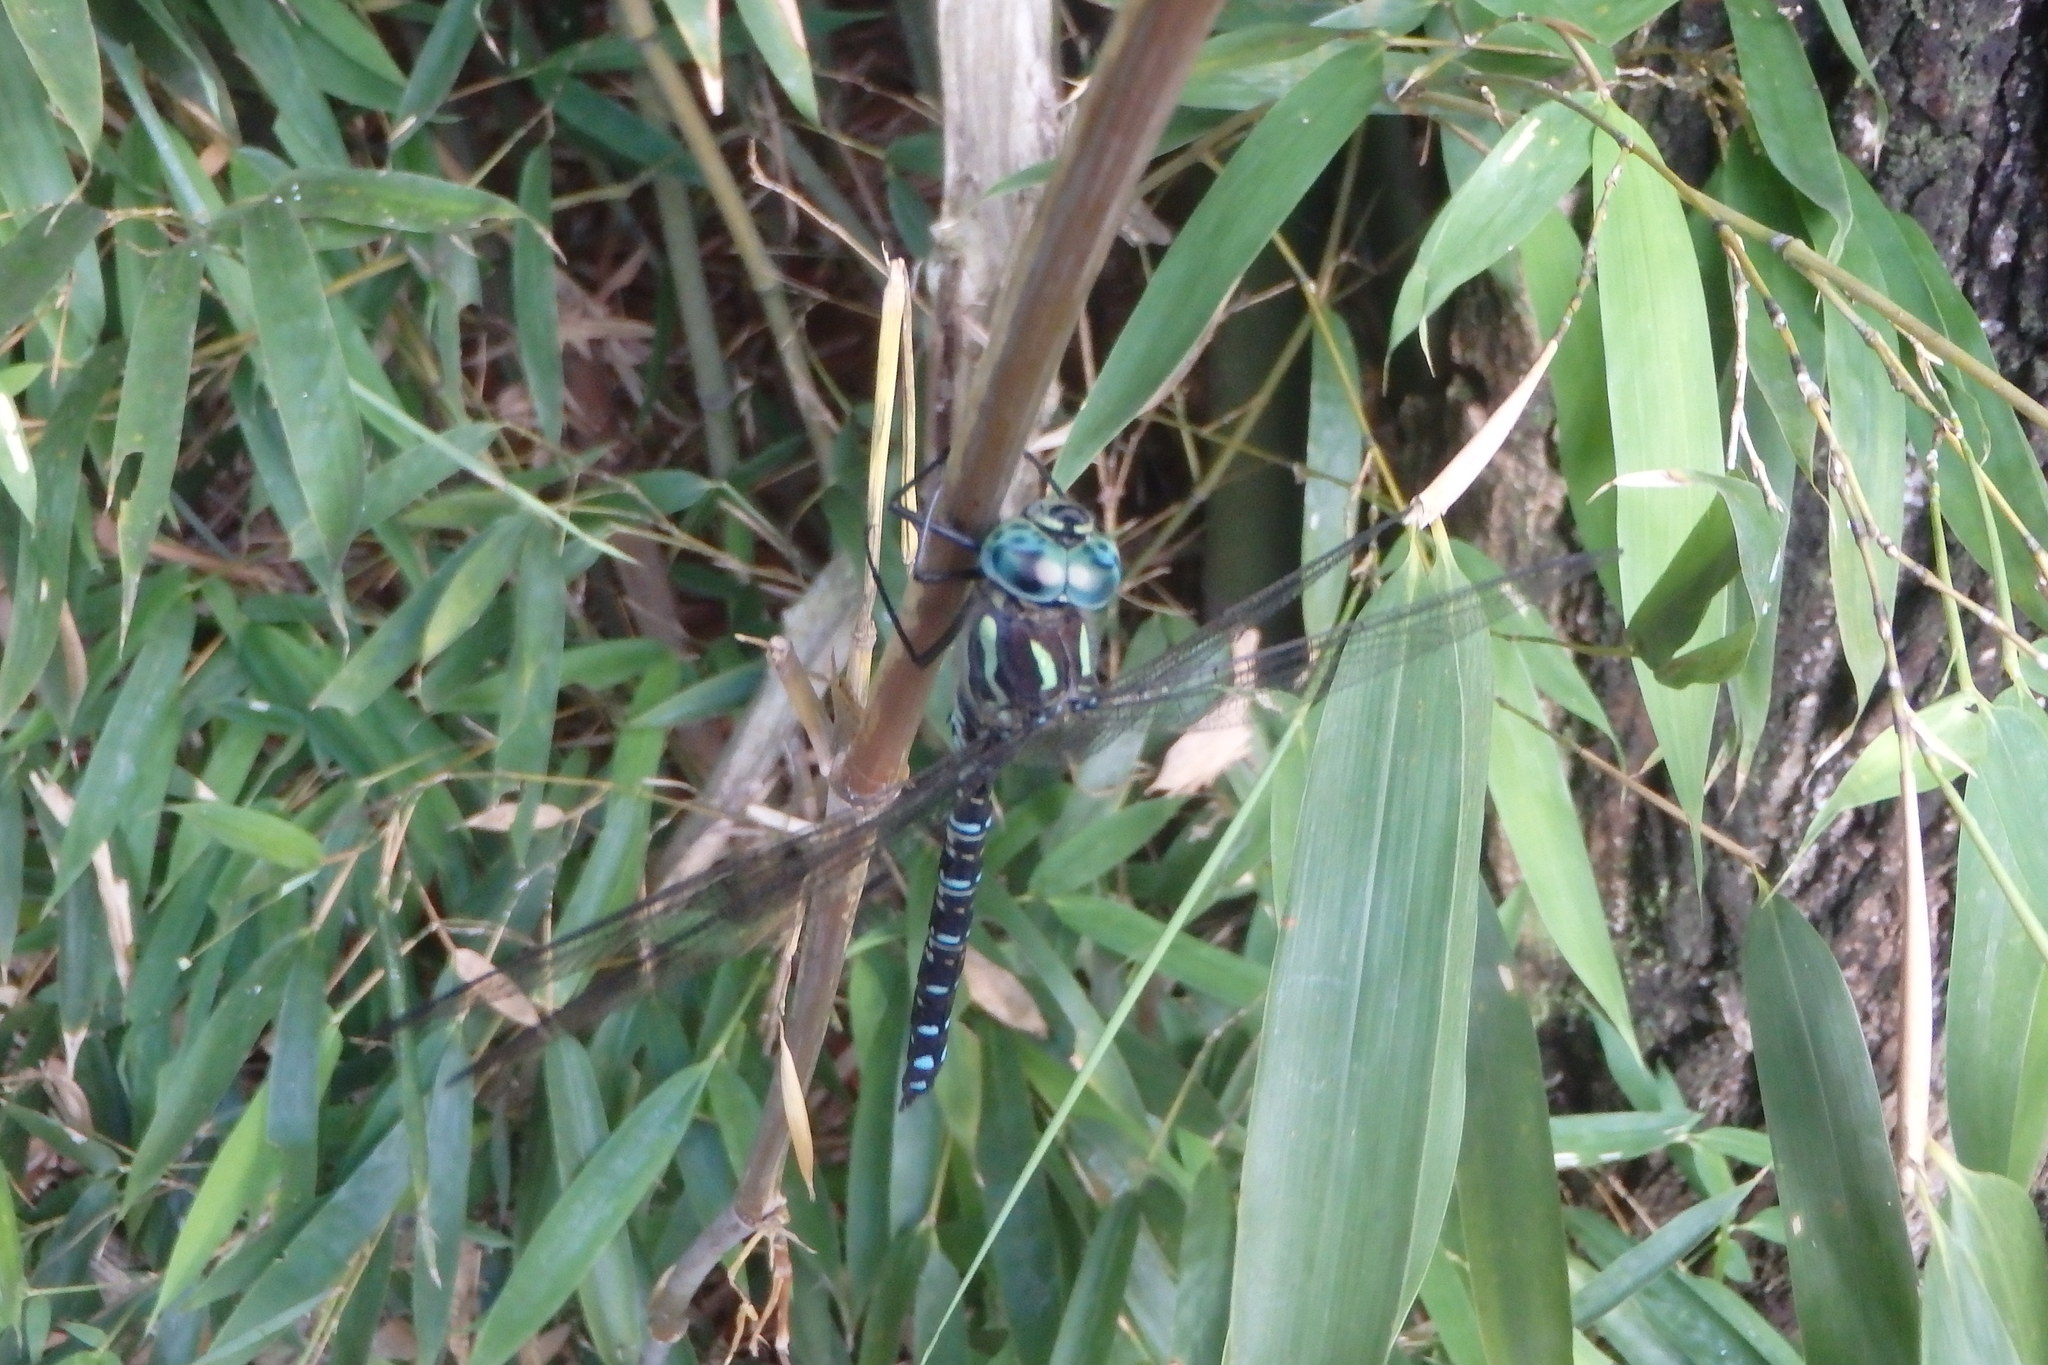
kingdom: Animalia
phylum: Arthropoda
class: Insecta
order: Odonata
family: Aeshnidae
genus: Aeshna
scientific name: Aeshna crenata
